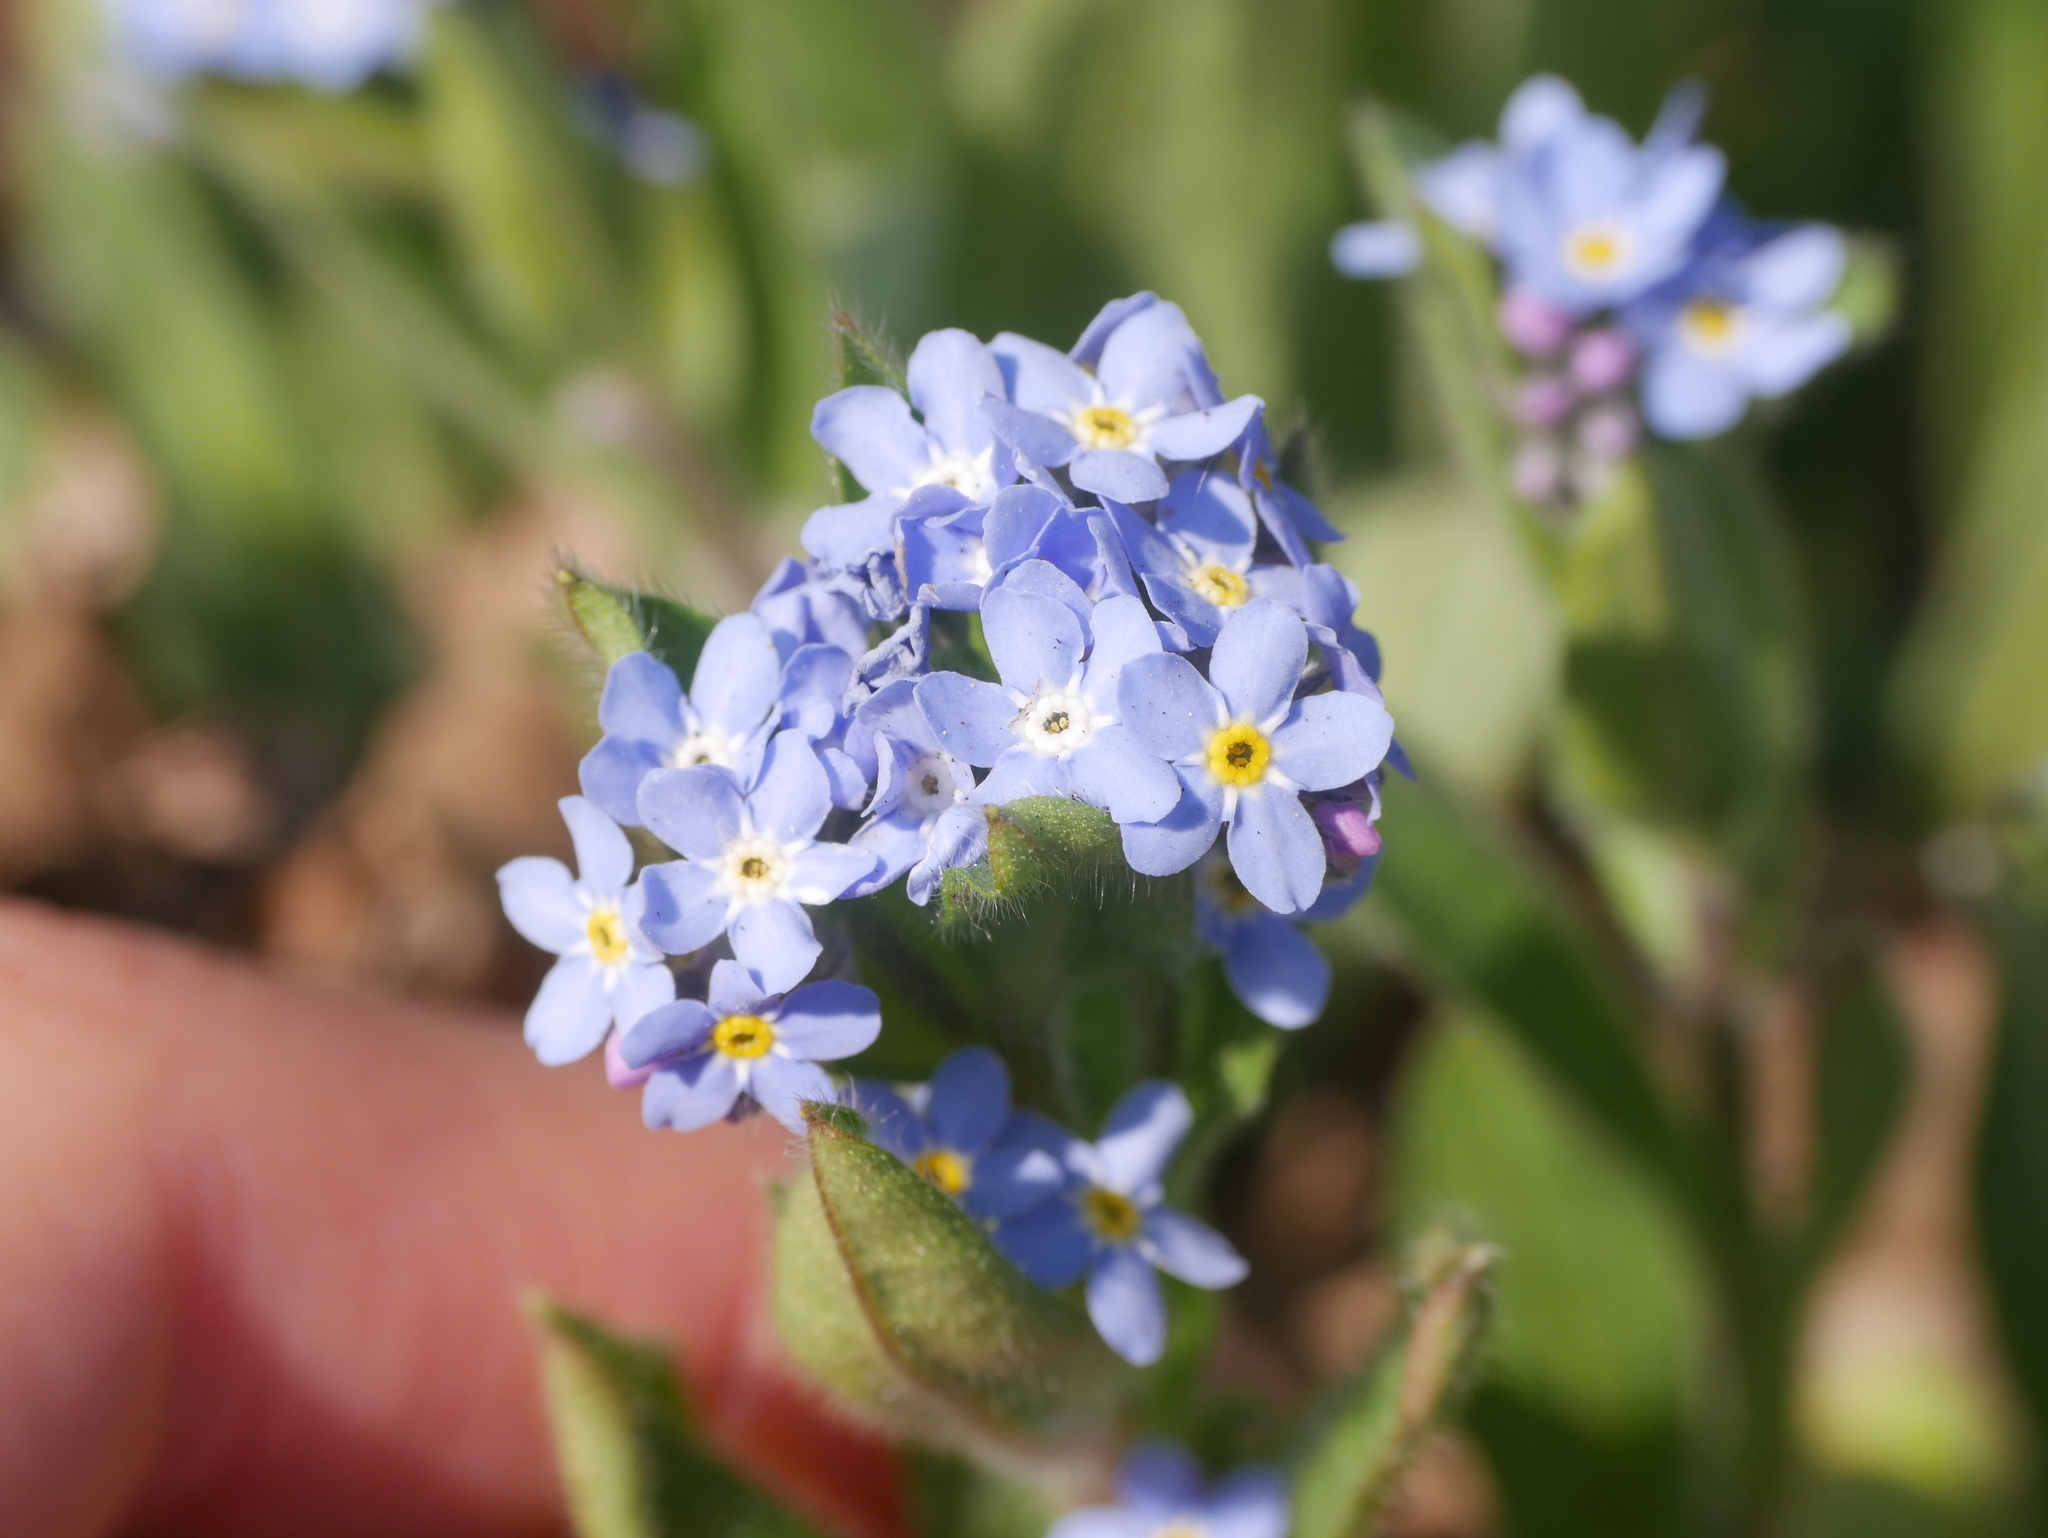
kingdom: Plantae
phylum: Tracheophyta
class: Magnoliopsida
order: Boraginales
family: Boraginaceae
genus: Myosotis
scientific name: Myosotis sylvatica
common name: Wood forget-me-not
